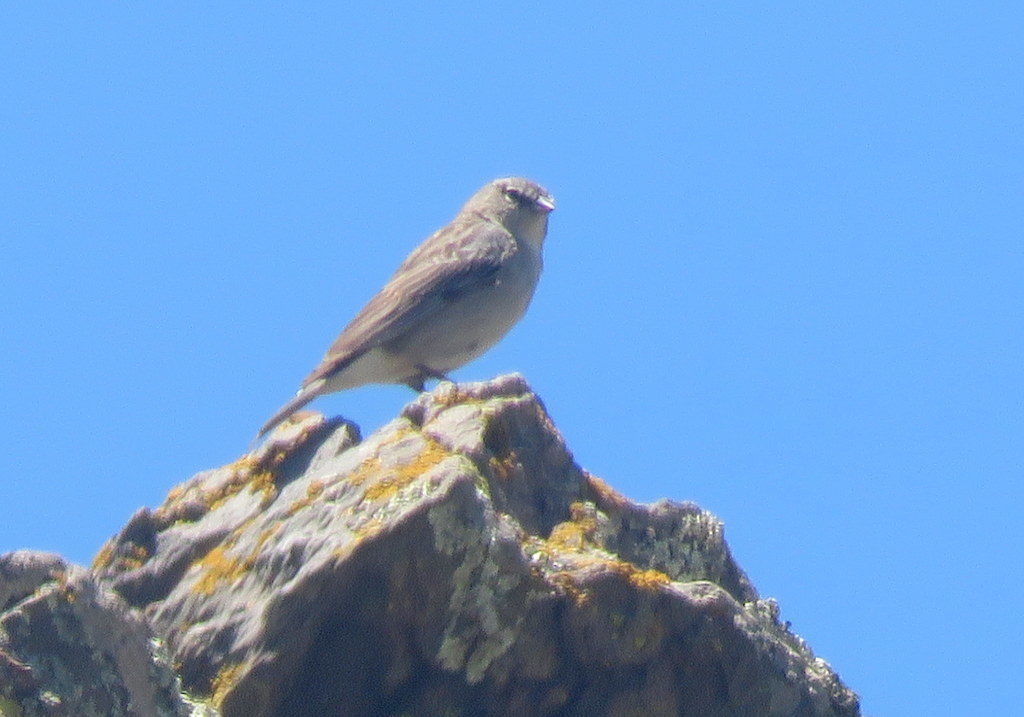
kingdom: Animalia
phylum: Chordata
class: Aves
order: Passeriformes
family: Thraupidae
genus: Geospizopsis
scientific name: Geospizopsis plebejus
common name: Ash-breasted sierra-finch
